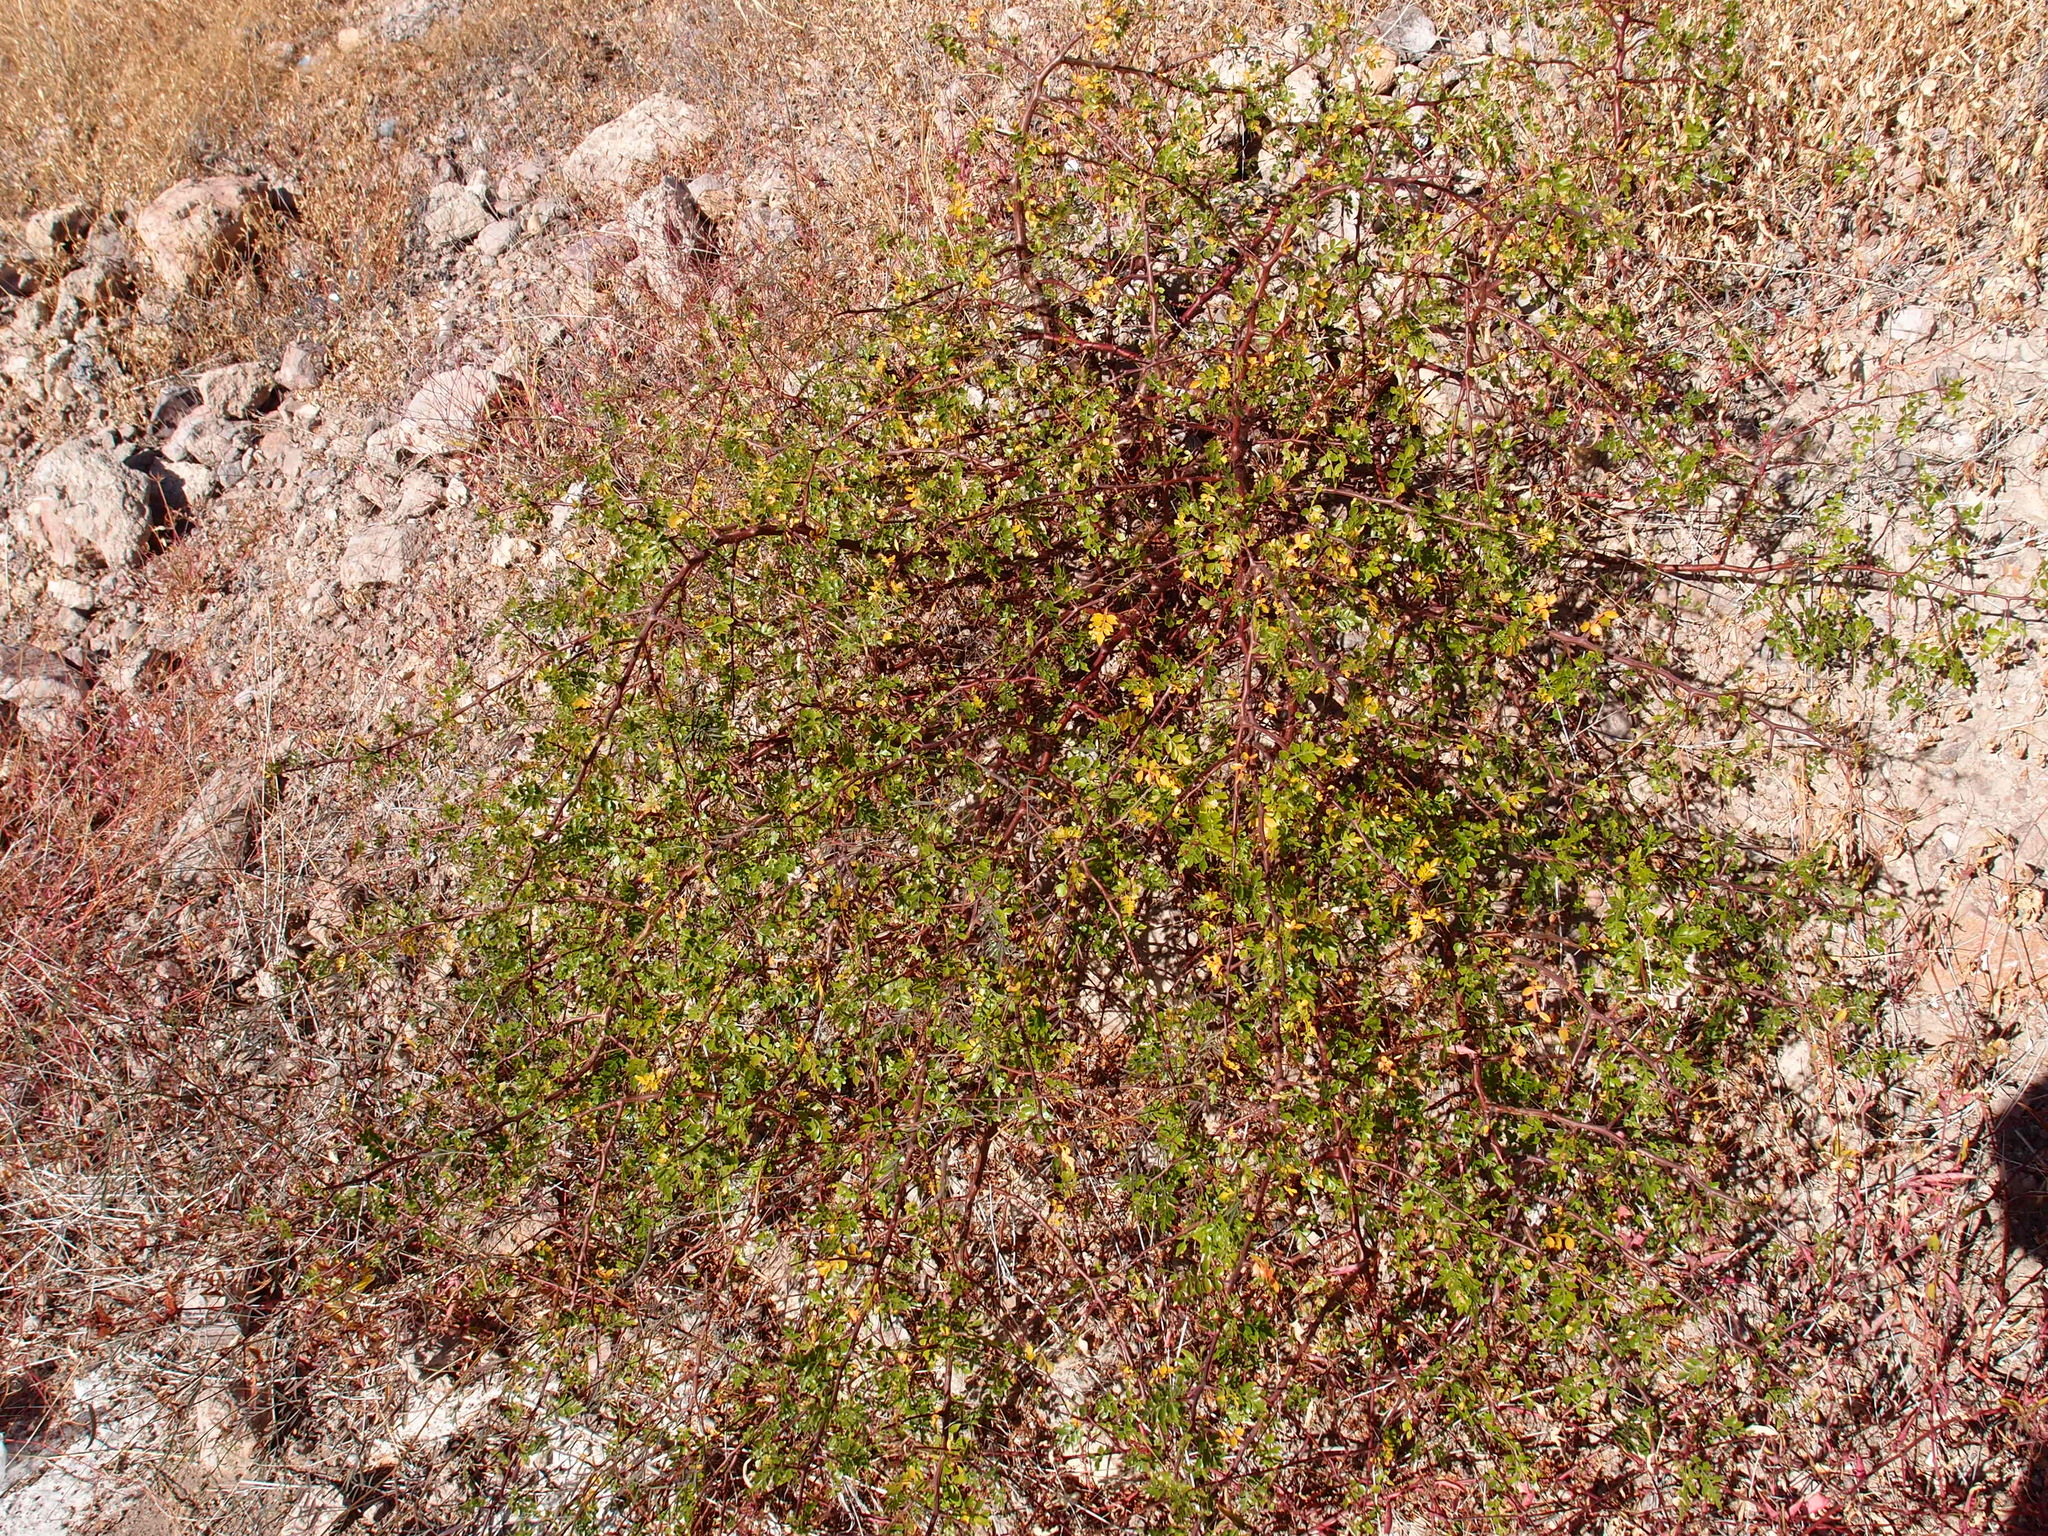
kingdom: Plantae
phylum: Tracheophyta
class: Magnoliopsida
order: Sapindales
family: Burseraceae
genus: Bursera
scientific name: Bursera laxiflora
